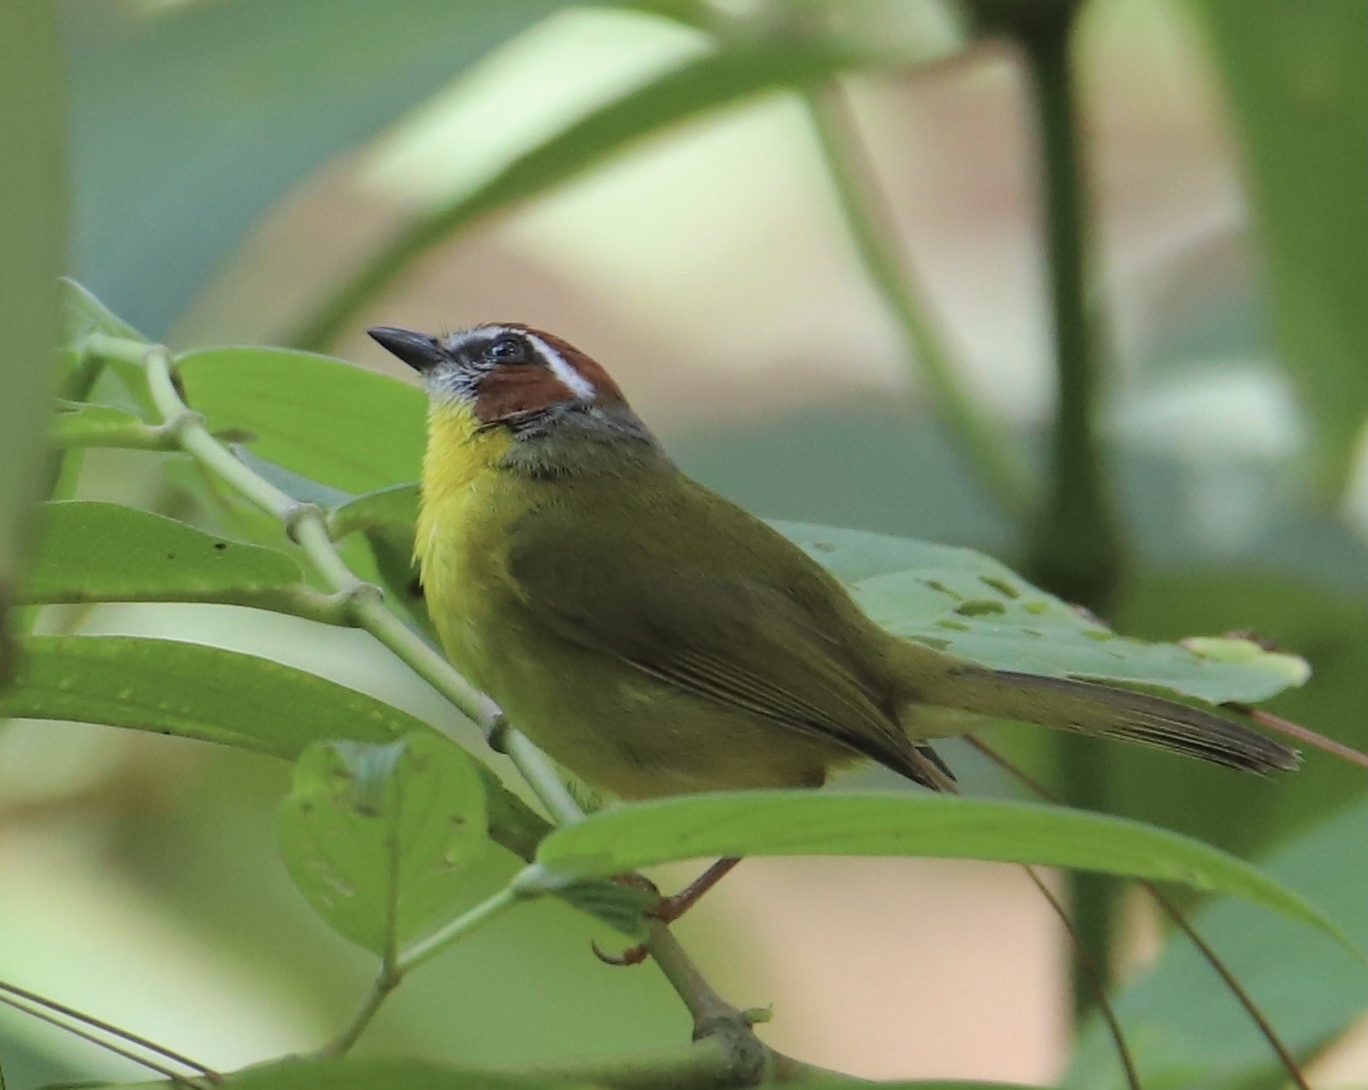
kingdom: Animalia
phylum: Chordata
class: Aves
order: Passeriformes
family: Parulidae
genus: Basileuterus
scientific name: Basileuterus rufifrons
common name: Rufous-capped warbler
